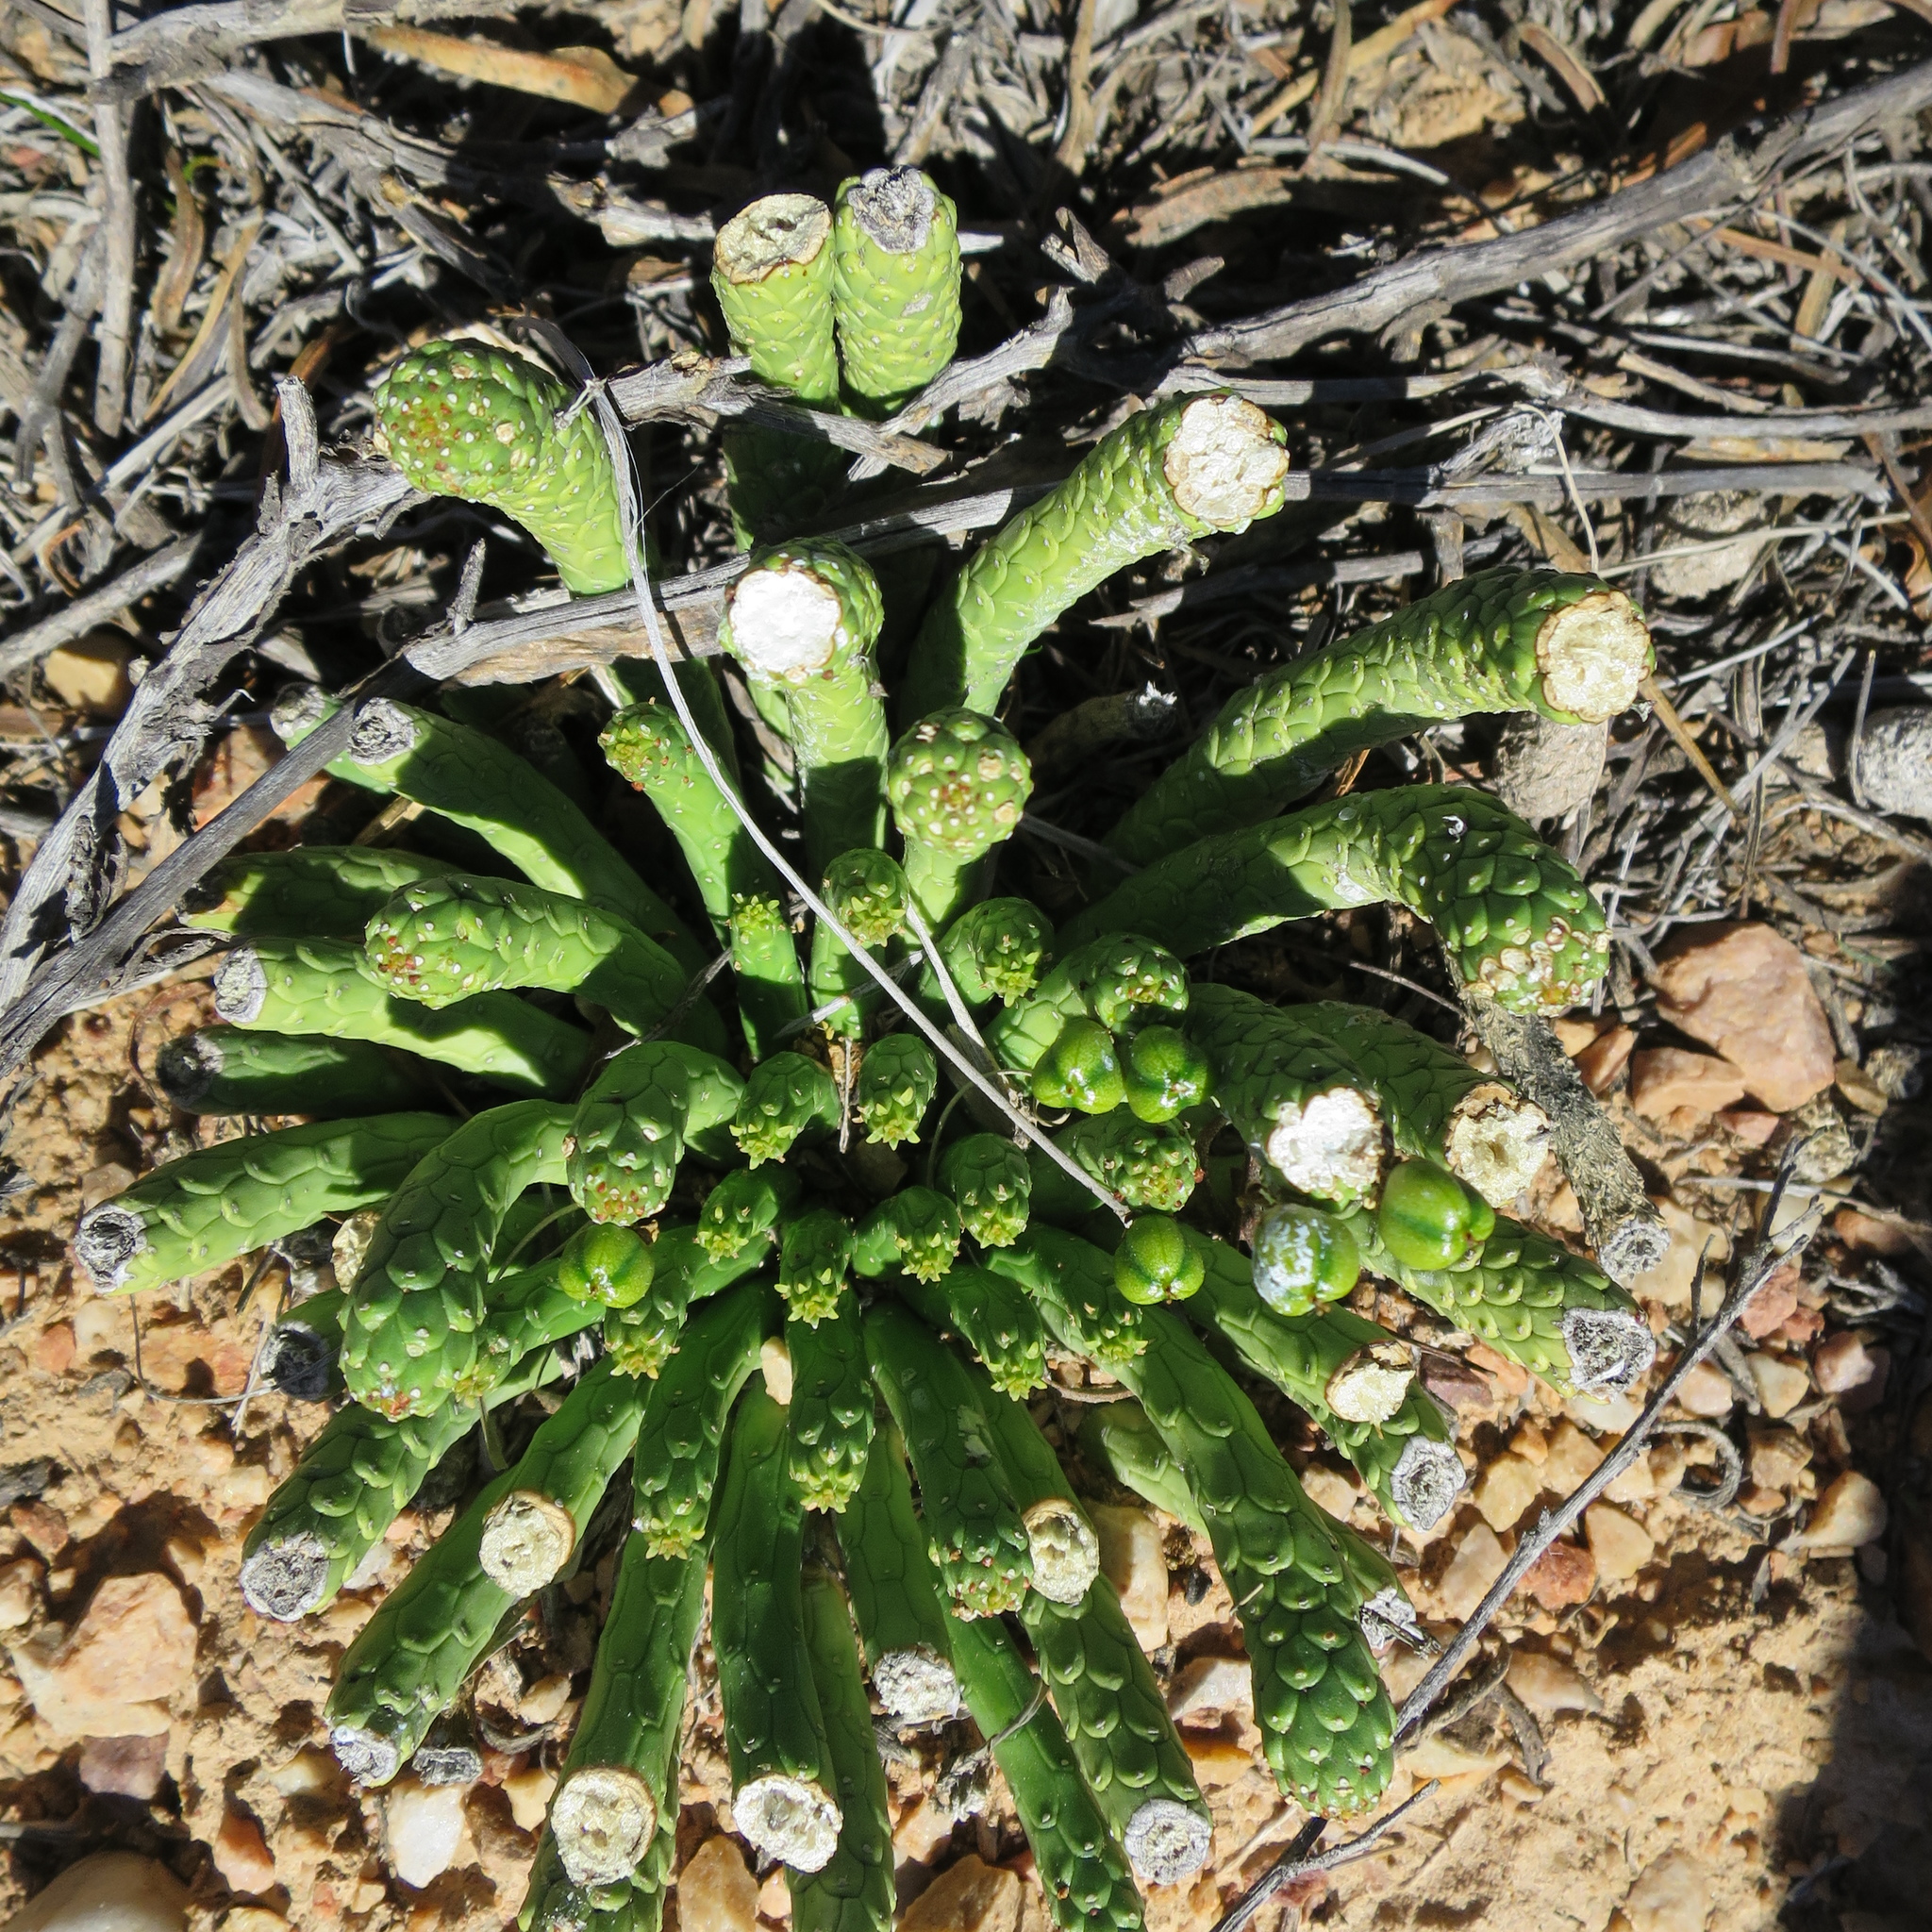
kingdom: Plantae
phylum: Tracheophyta
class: Magnoliopsida
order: Malpighiales
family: Euphorbiaceae
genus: Euphorbia
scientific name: Euphorbia colliculina
